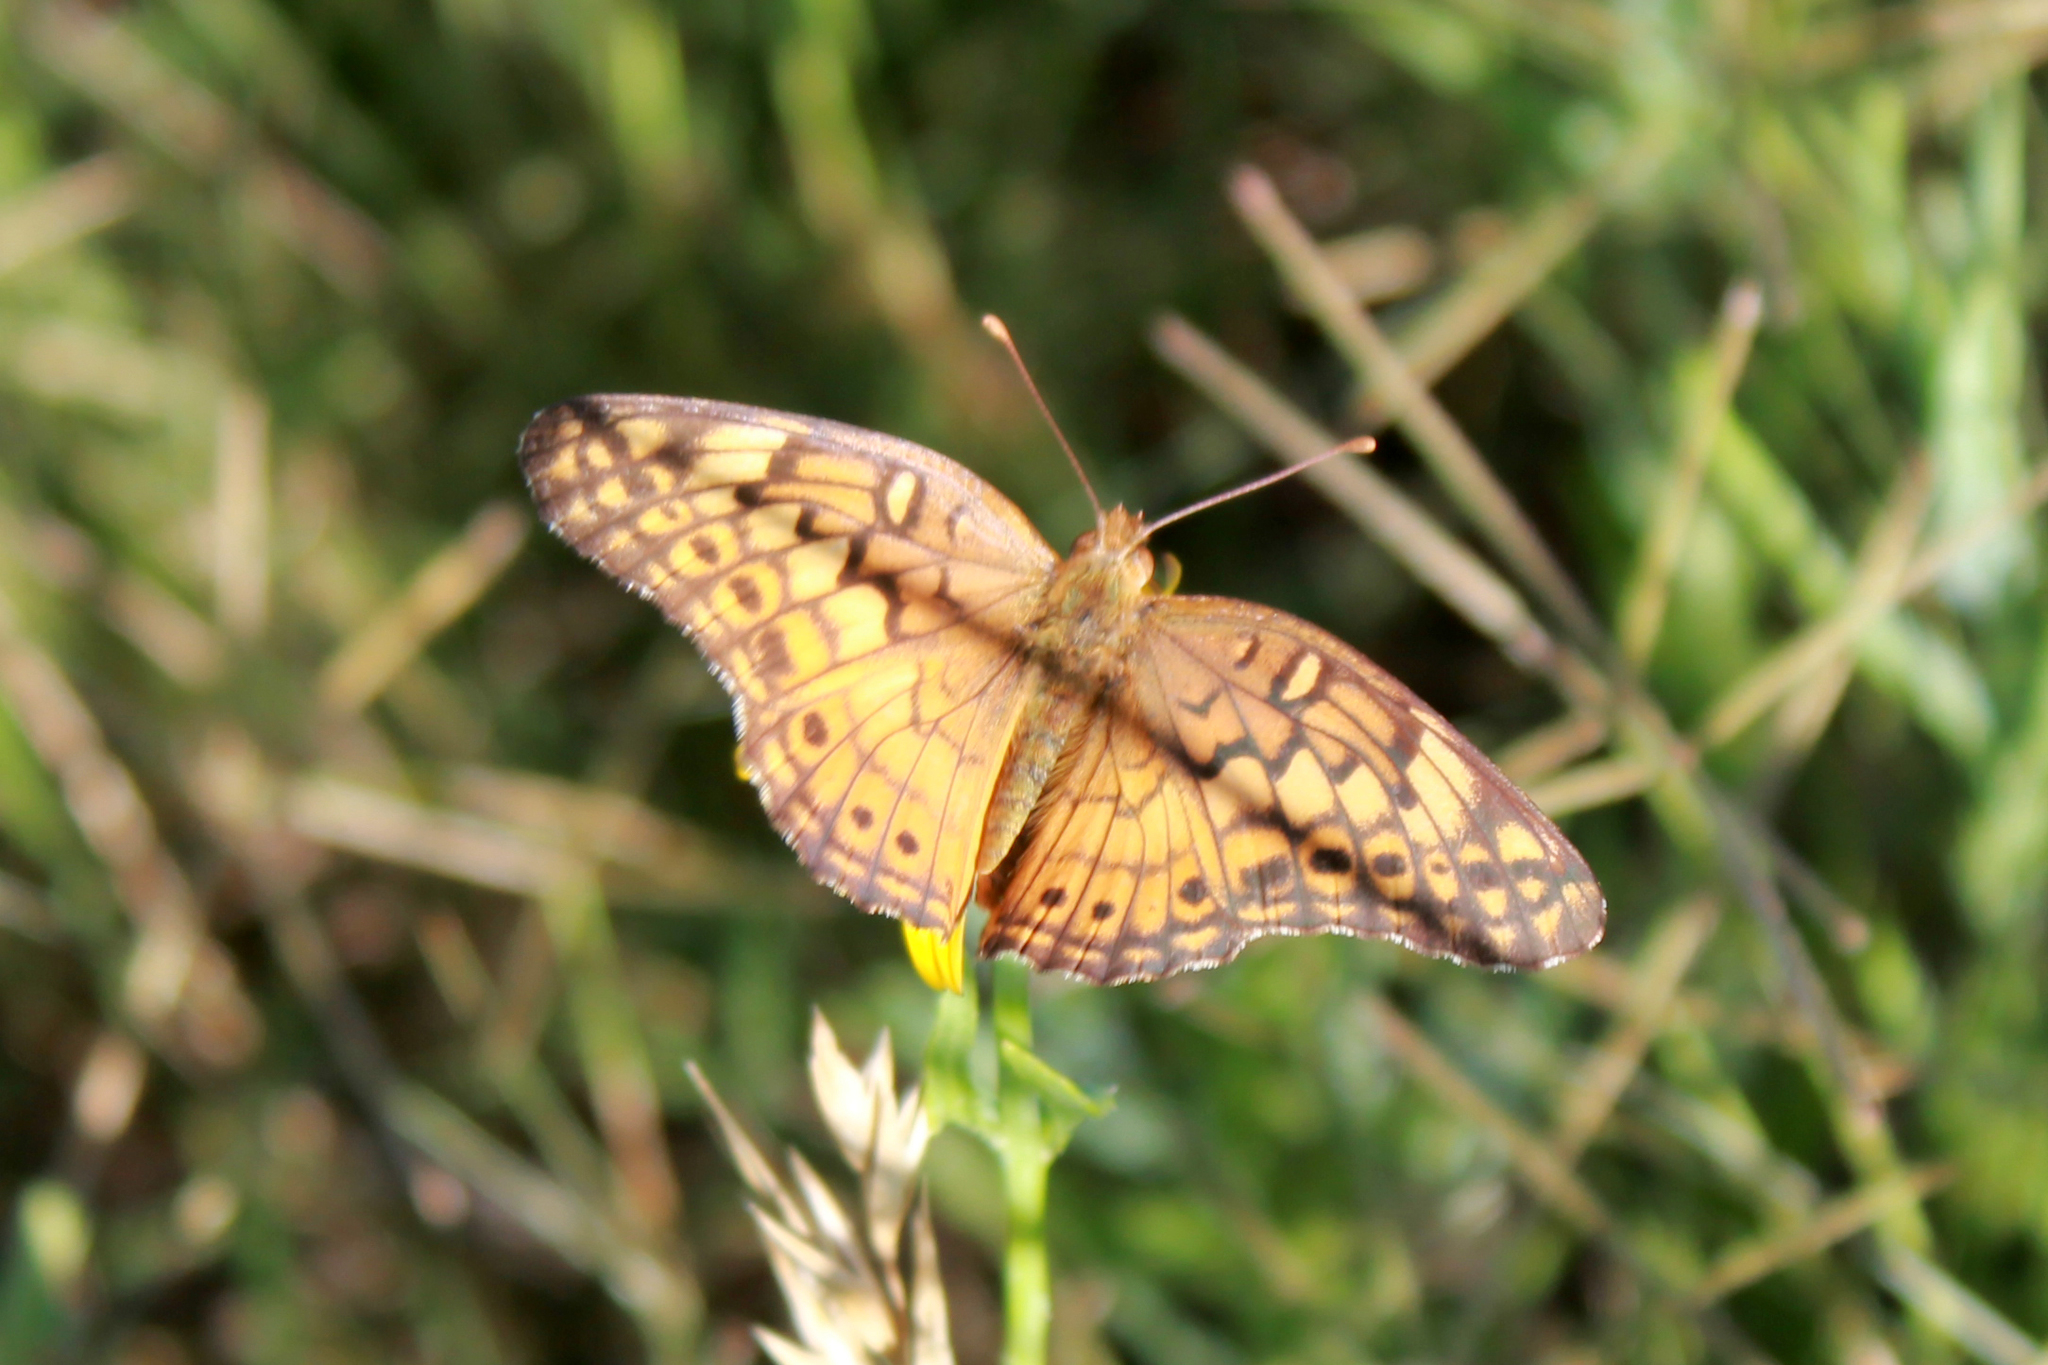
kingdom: Animalia
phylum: Arthropoda
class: Insecta
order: Lepidoptera
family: Nymphalidae
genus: Euptoieta
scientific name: Euptoieta claudia
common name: Variegated fritillary
